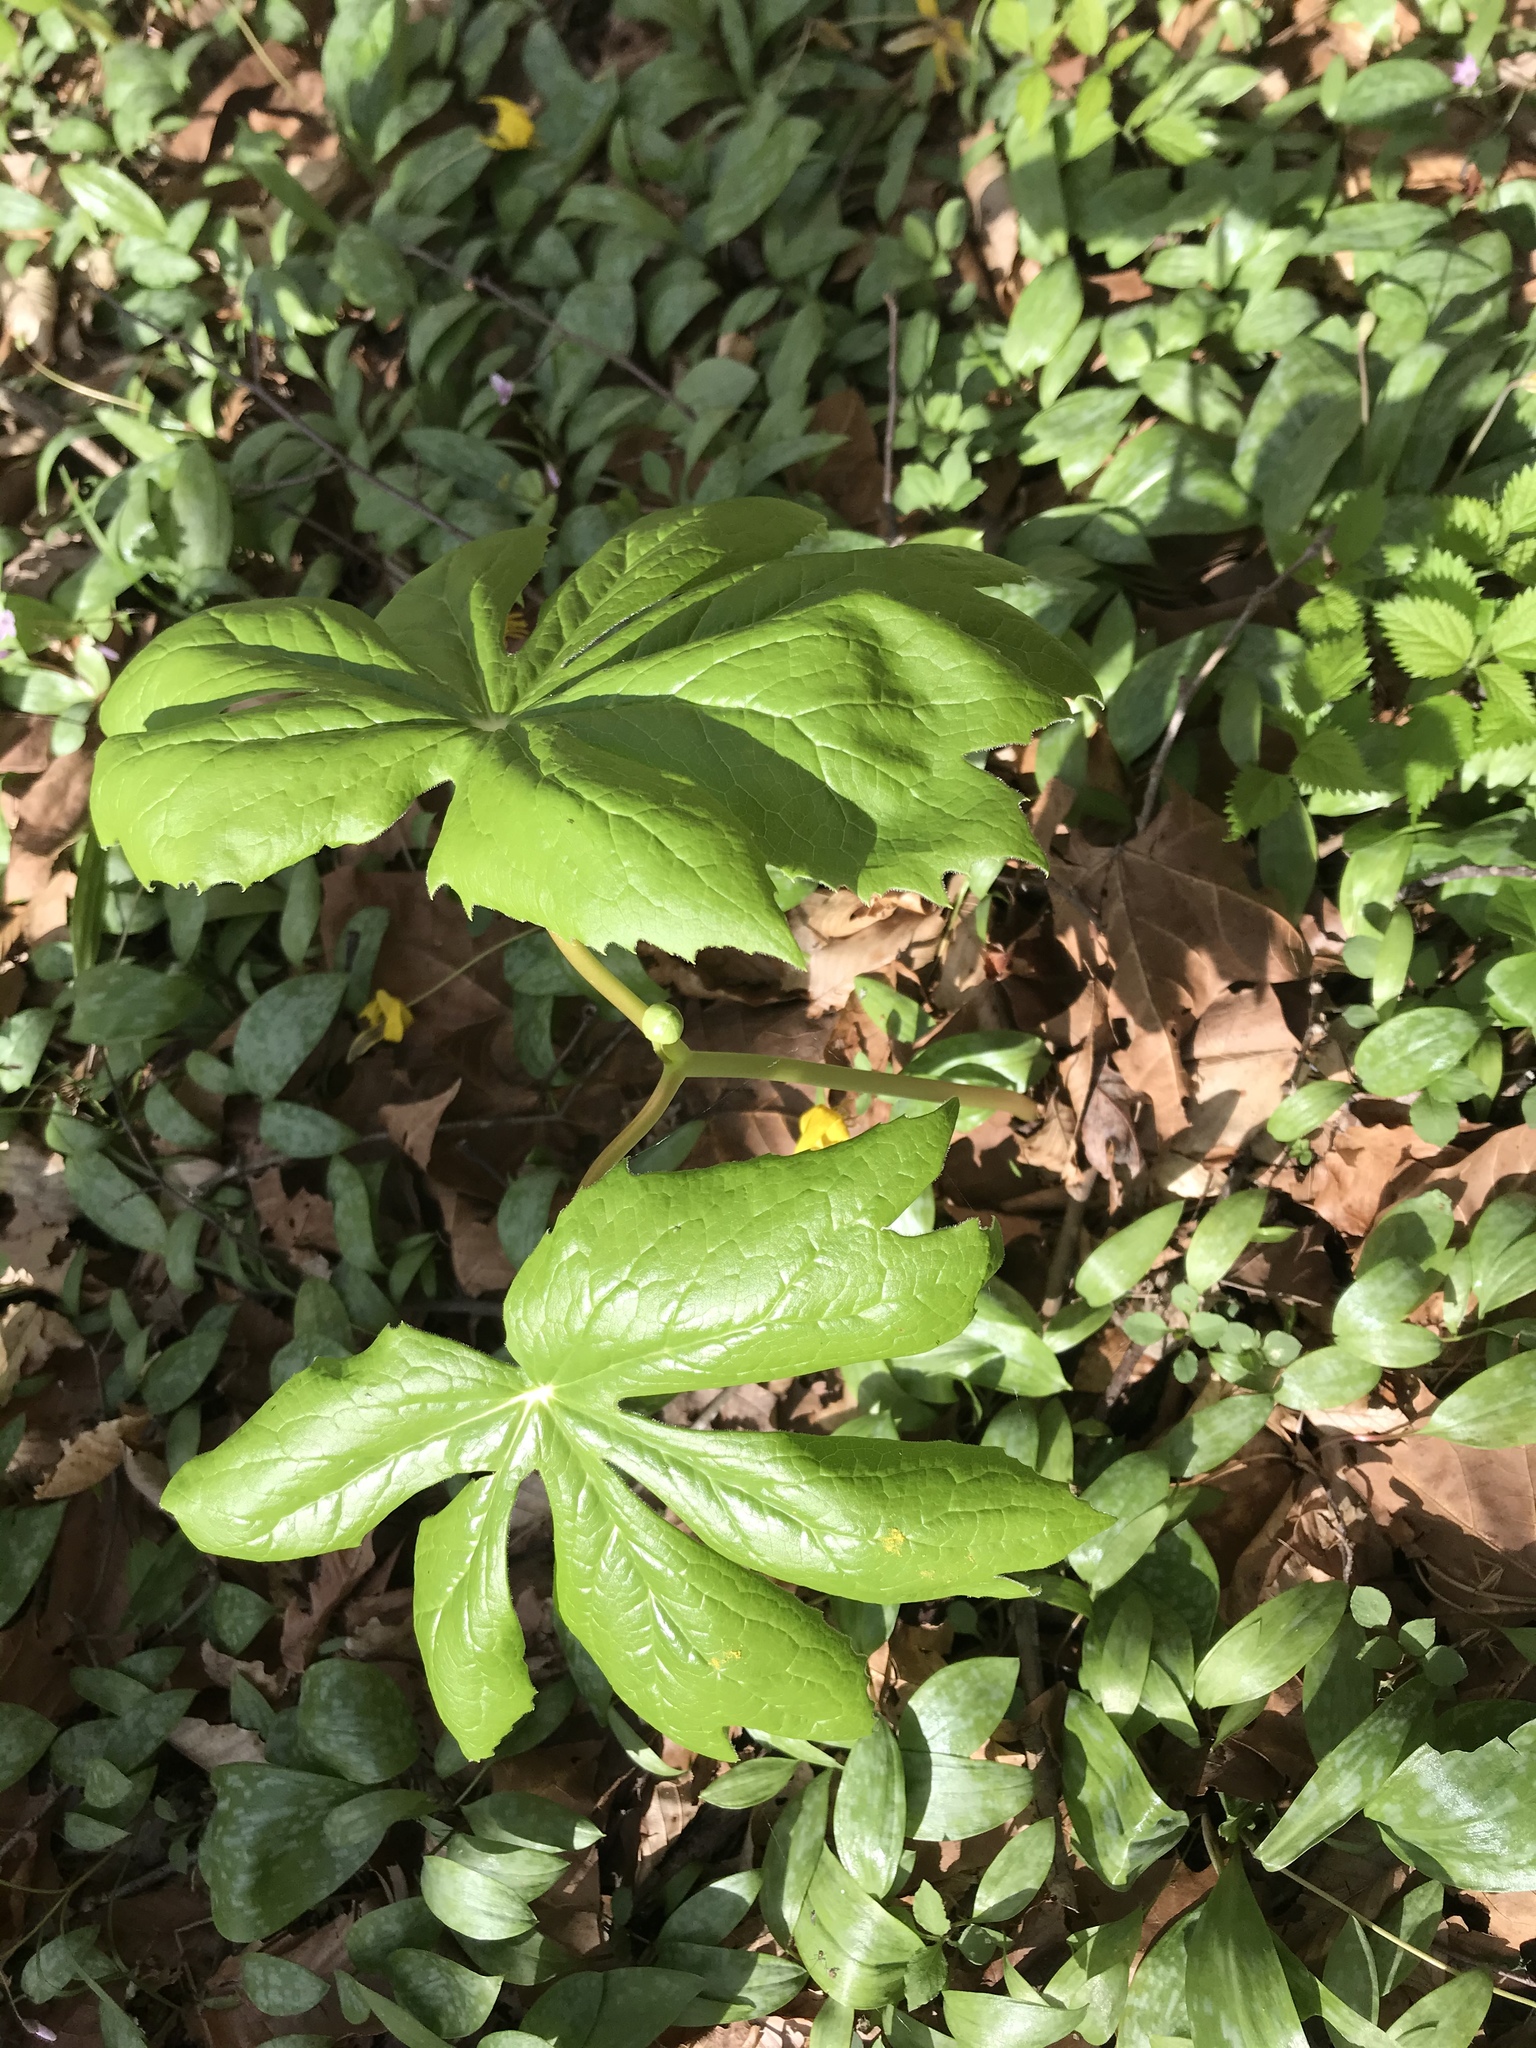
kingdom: Plantae
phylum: Tracheophyta
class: Magnoliopsida
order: Ranunculales
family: Berberidaceae
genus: Podophyllum
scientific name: Podophyllum peltatum
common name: Wild mandrake
